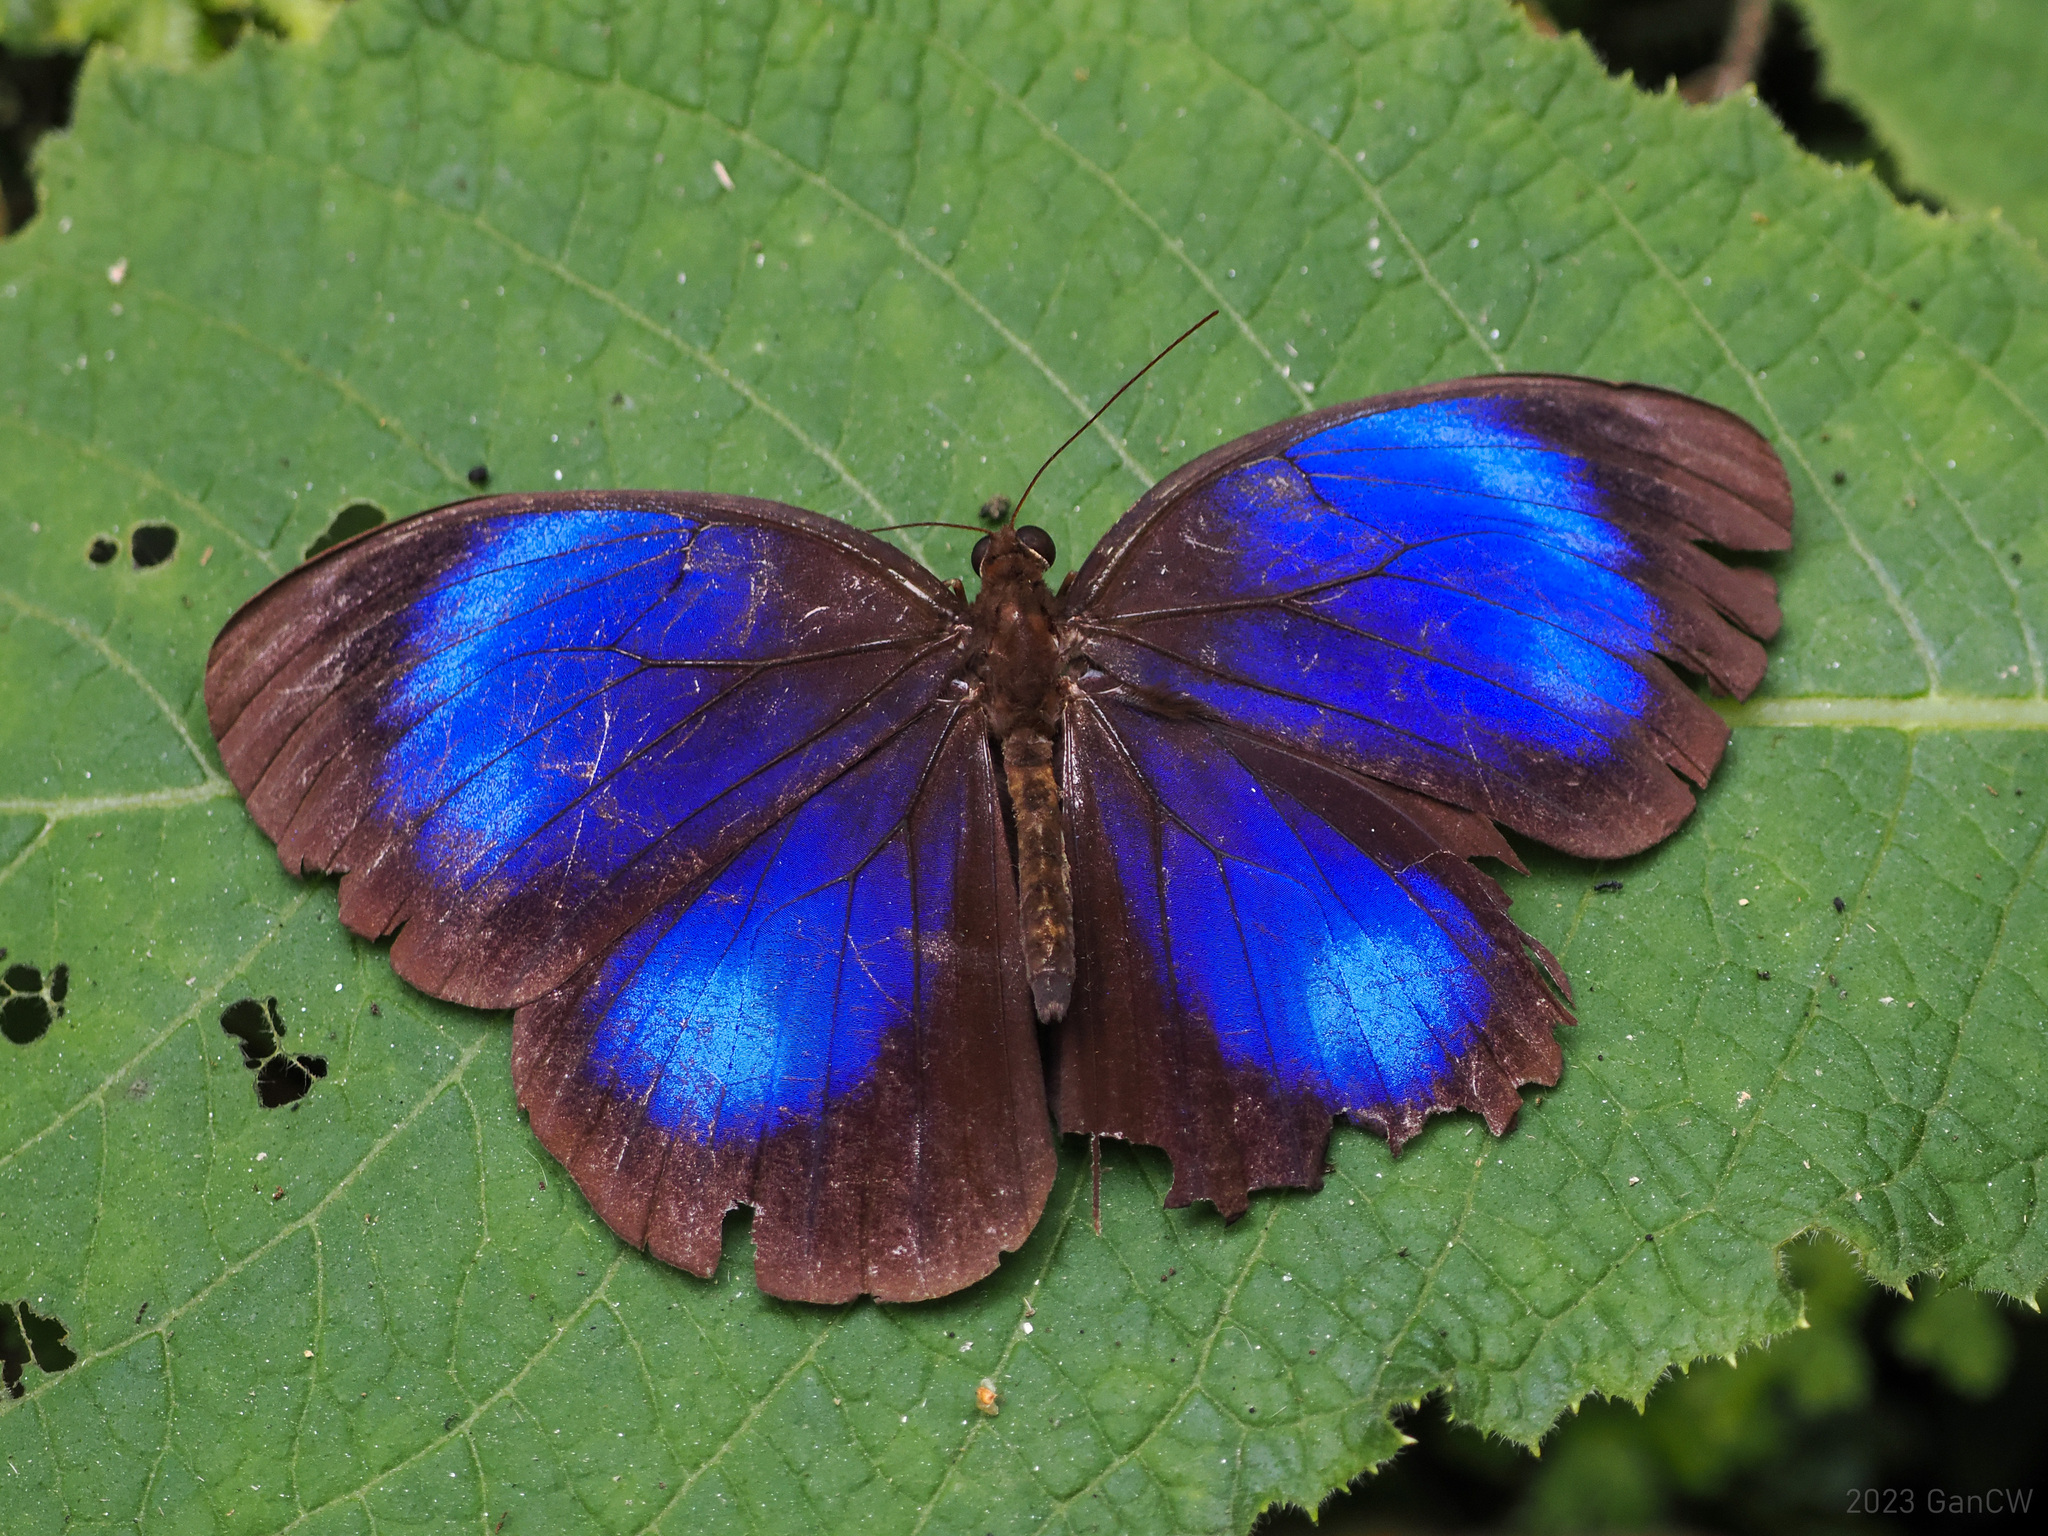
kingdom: Animalia
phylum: Arthropoda
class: Insecta
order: Lepidoptera
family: Nymphalidae
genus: Thaumantis
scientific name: Thaumantis diores
